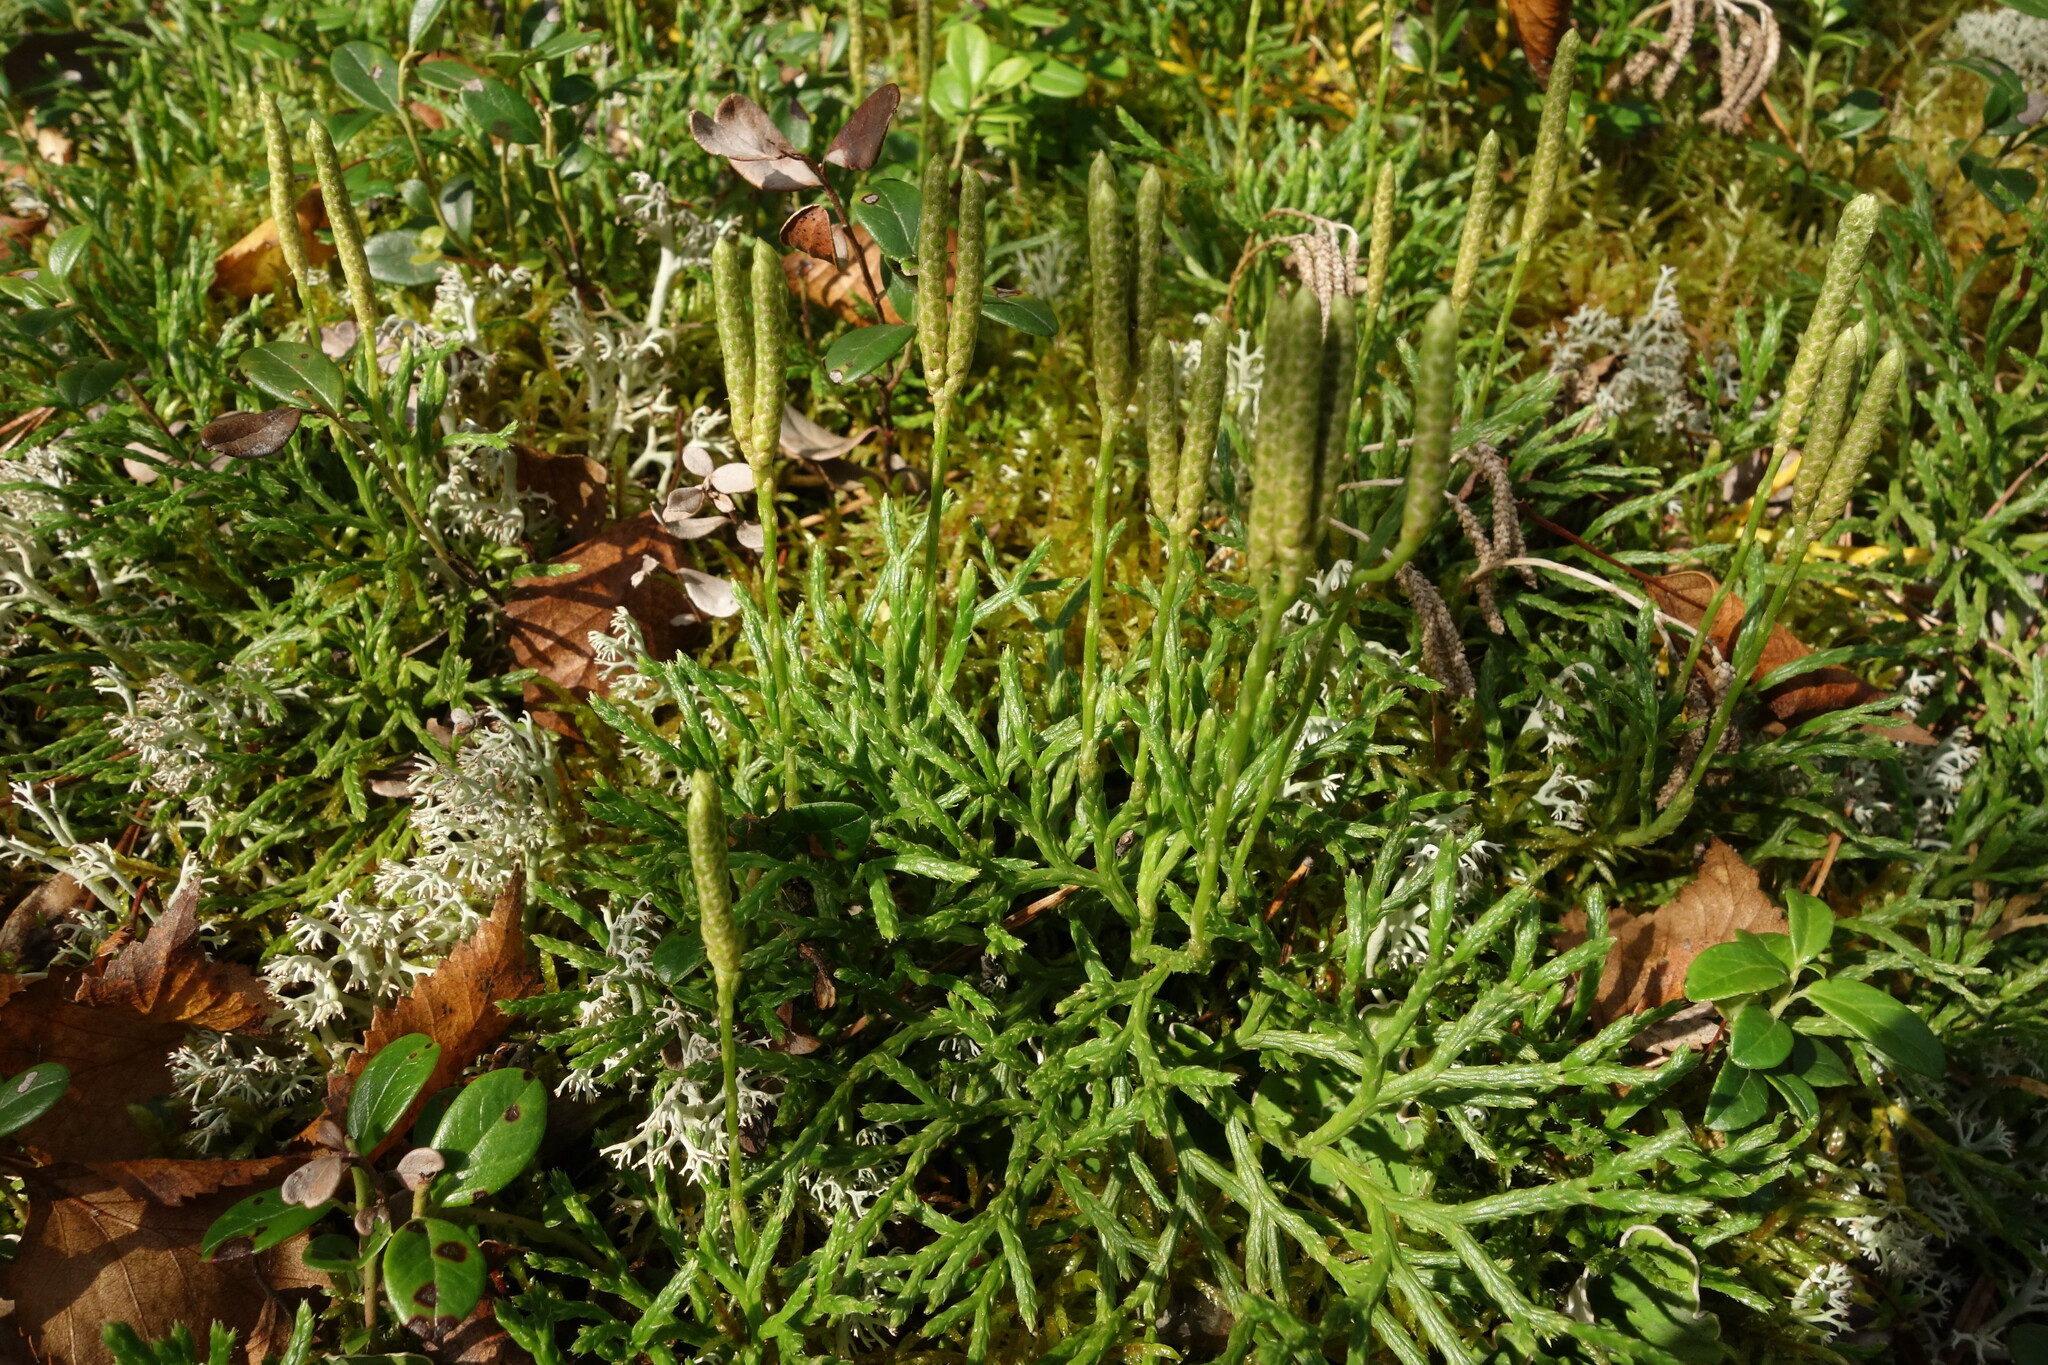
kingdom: Plantae
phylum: Tracheophyta
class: Lycopodiopsida
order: Lycopodiales
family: Lycopodiaceae
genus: Diphasiastrum
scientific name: Diphasiastrum complanatum
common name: Northern running-pine
